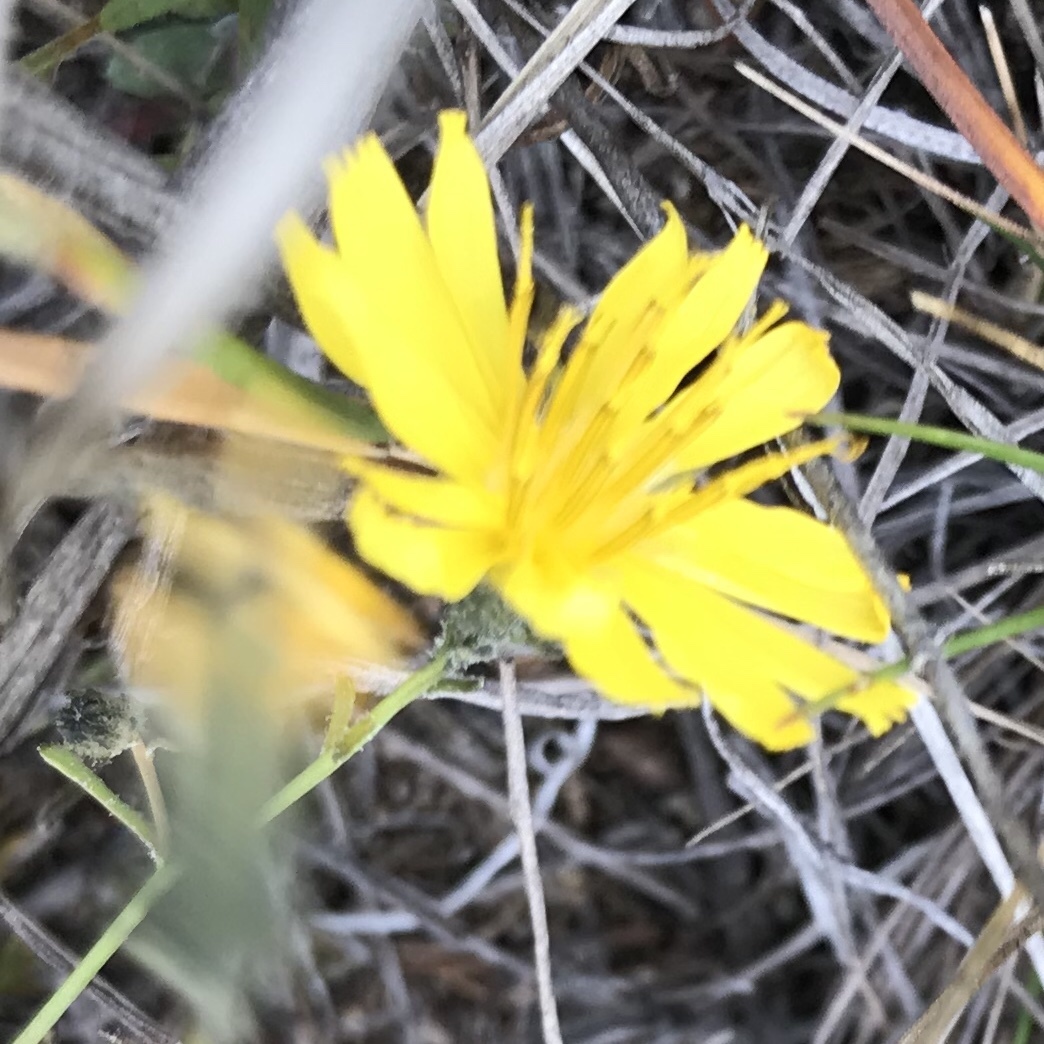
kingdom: Plantae
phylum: Tracheophyta
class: Magnoliopsida
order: Asterales
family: Asteraceae
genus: Crepidiastrum
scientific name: Crepidiastrum tenuifolium
